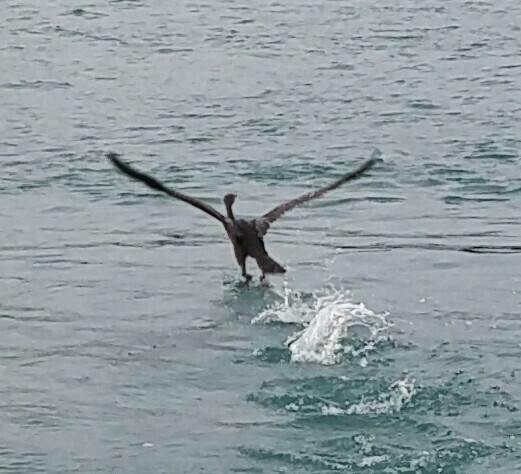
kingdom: Animalia
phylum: Chordata
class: Aves
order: Suliformes
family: Phalacrocoracidae
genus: Phalacrocorax
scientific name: Phalacrocorax auritus
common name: Double-crested cormorant
